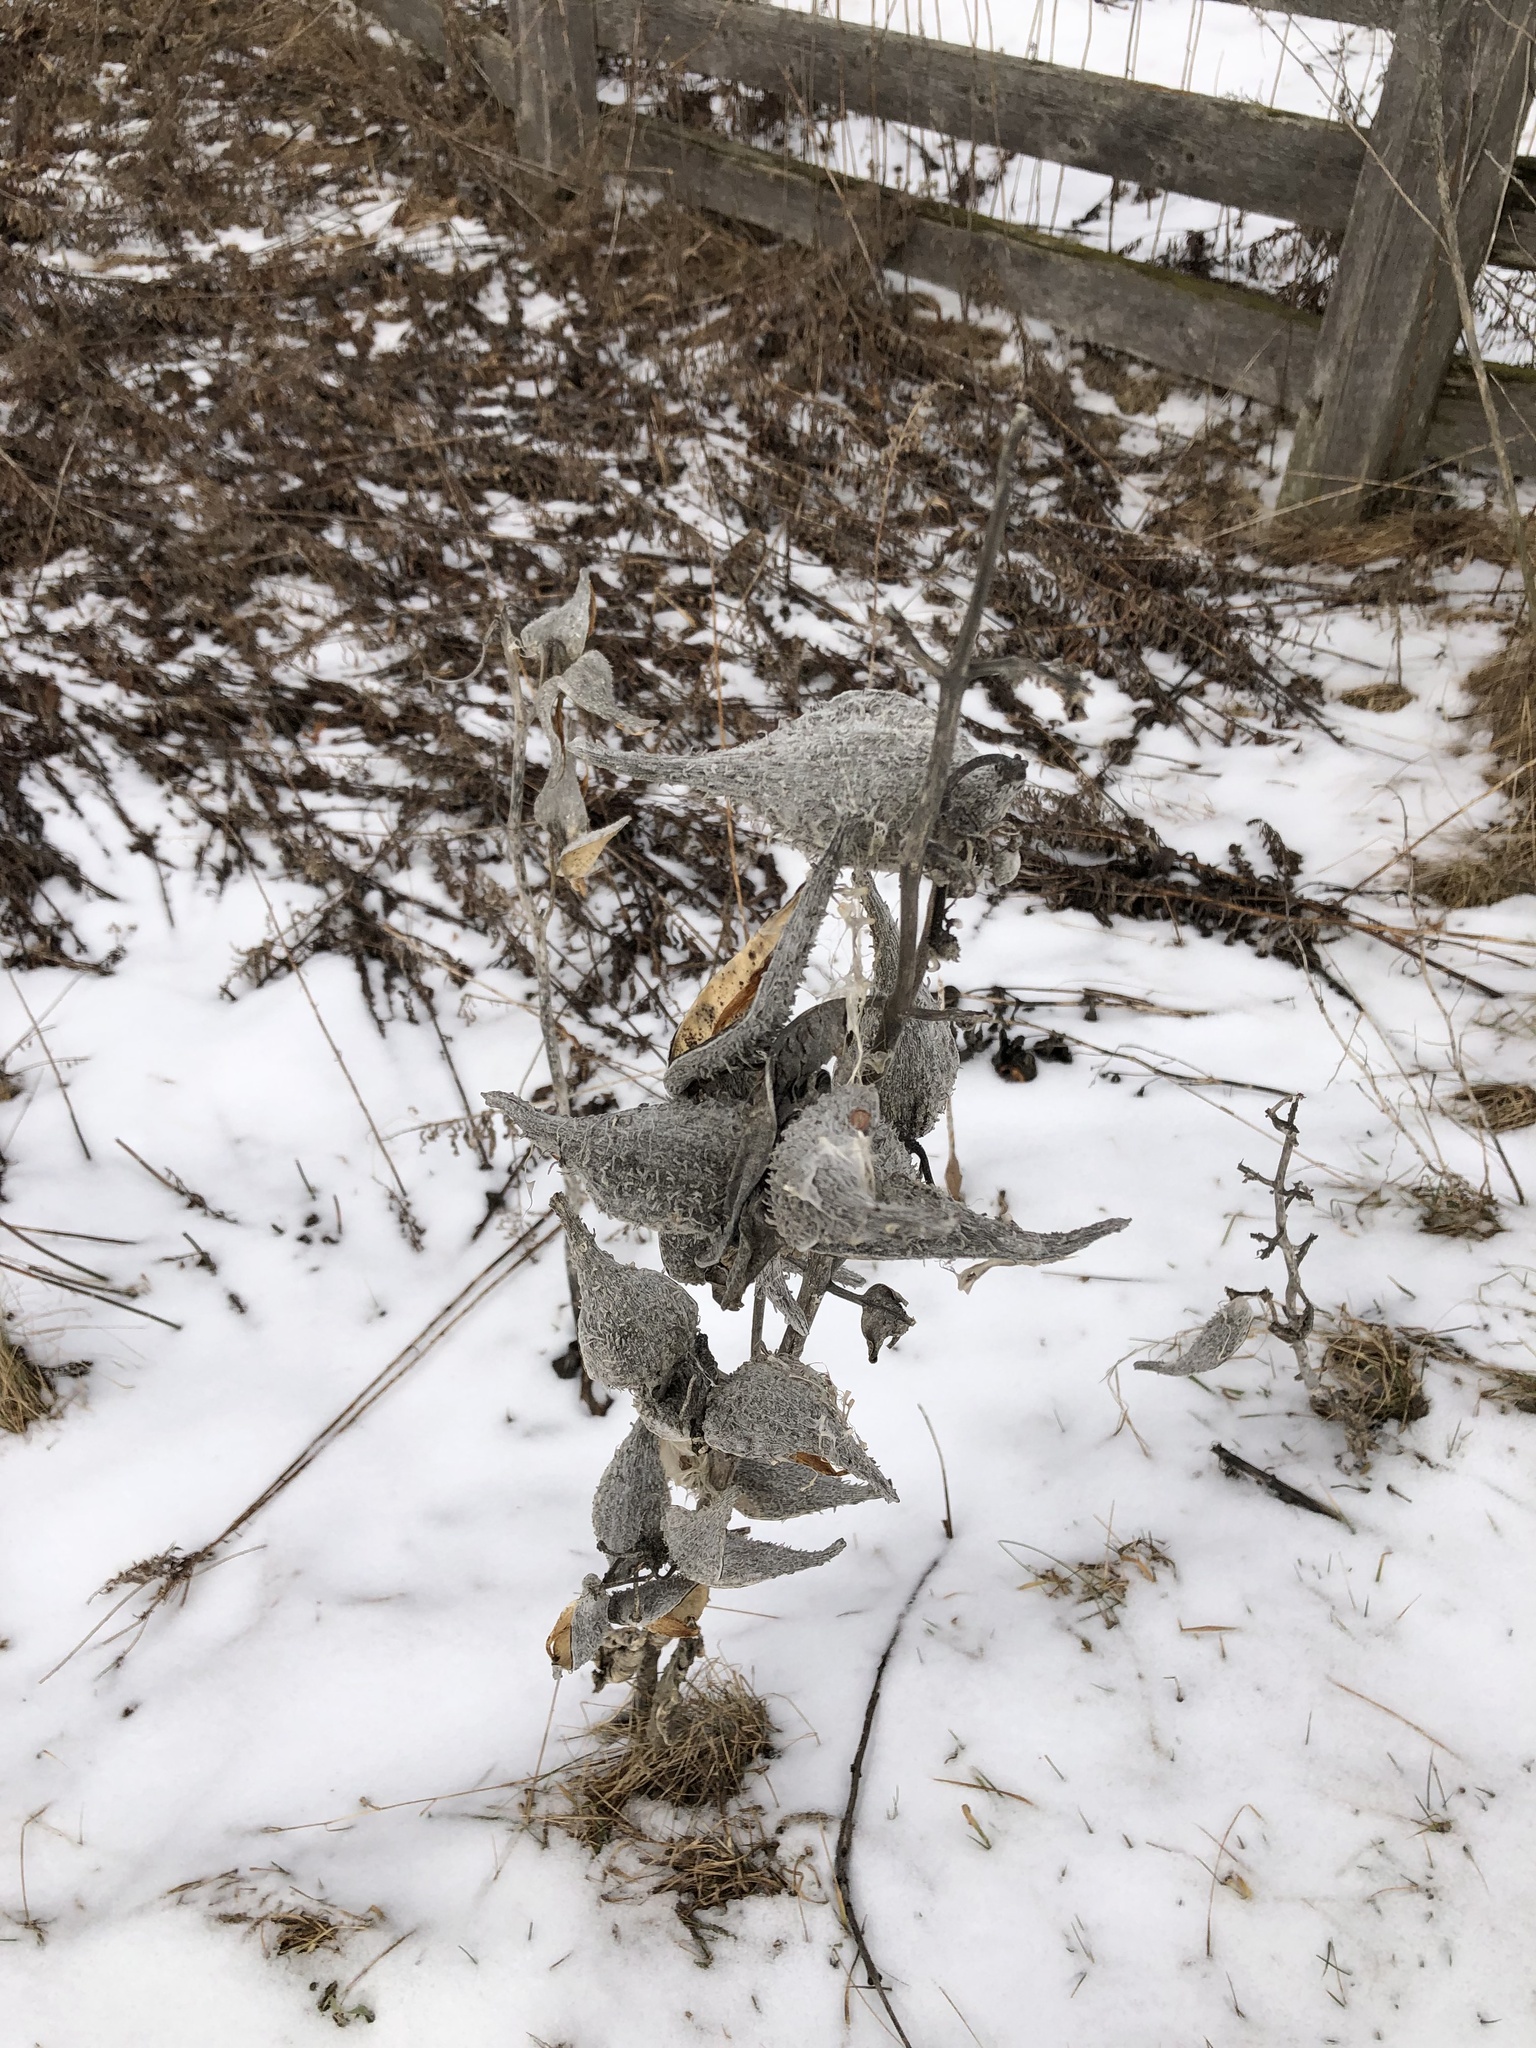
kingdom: Plantae
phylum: Tracheophyta
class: Magnoliopsida
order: Gentianales
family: Apocynaceae
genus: Asclepias
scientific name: Asclepias syriaca
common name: Common milkweed
